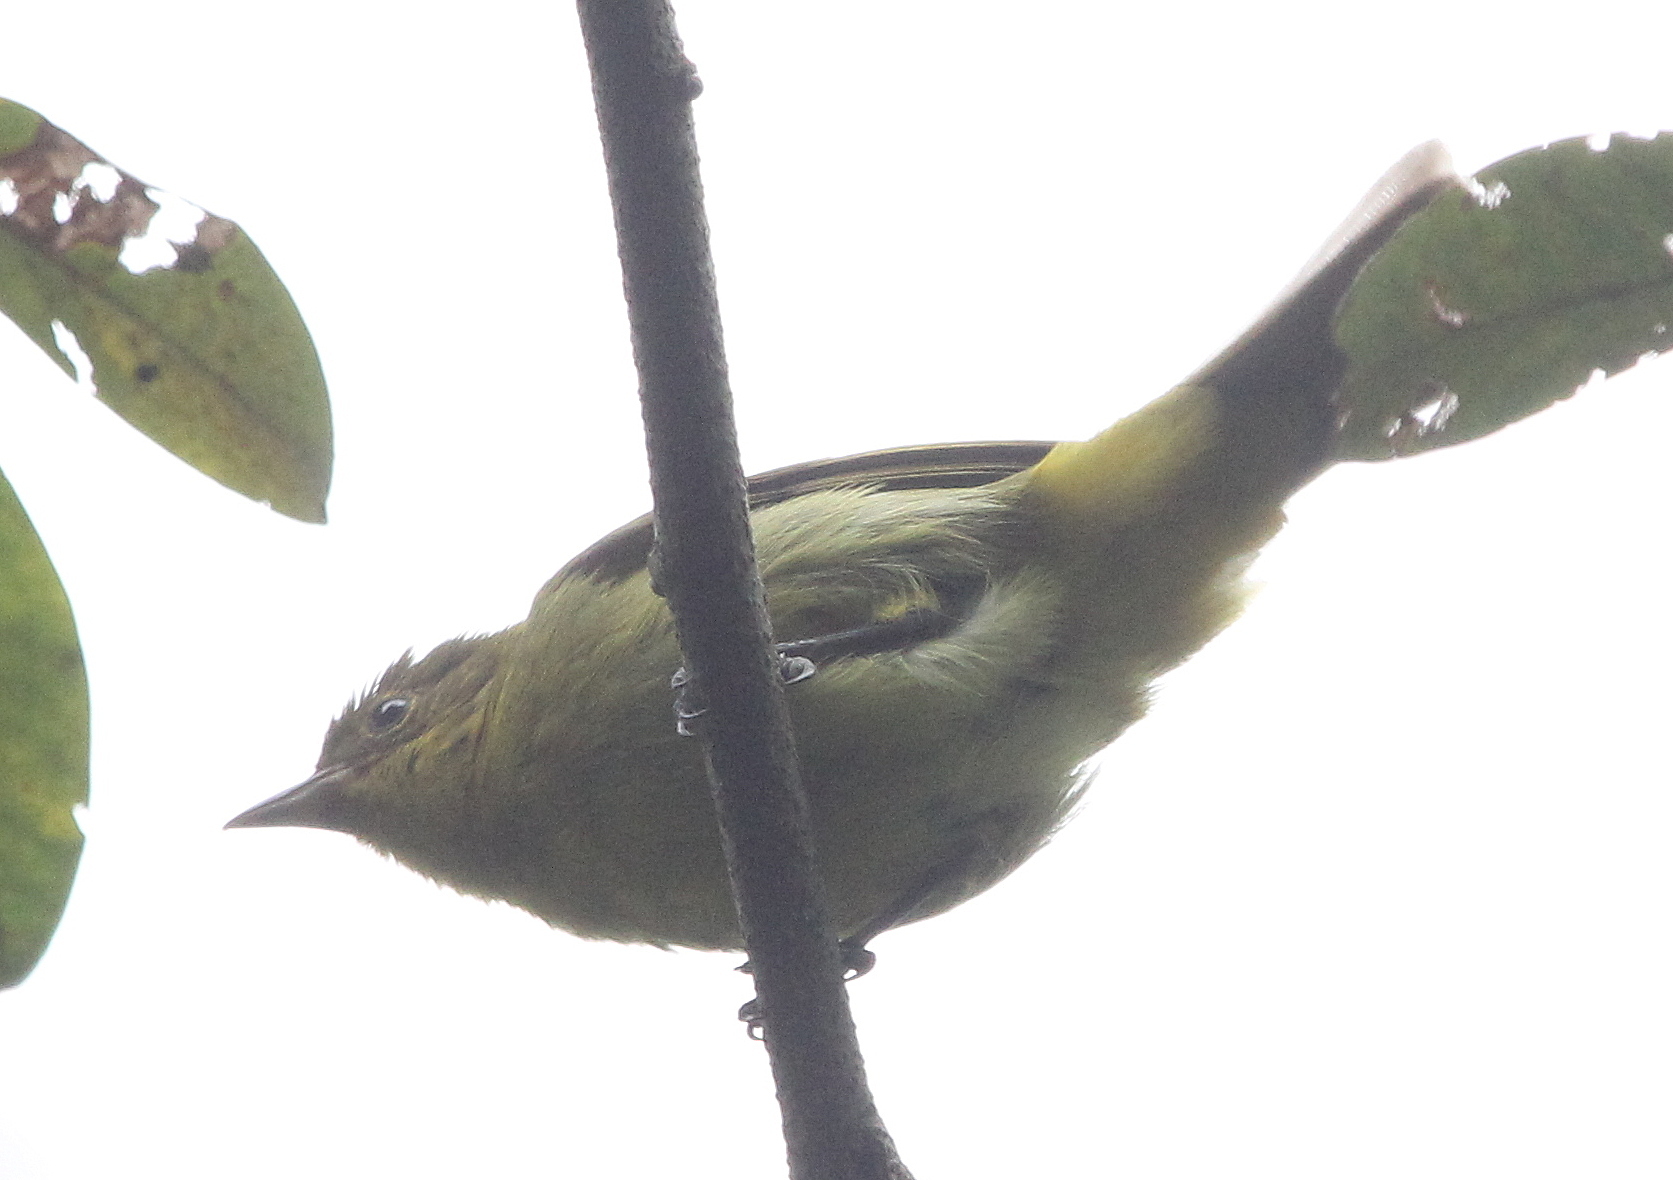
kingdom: Animalia
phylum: Chordata
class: Aves
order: Passeriformes
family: Thraupidae
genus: Hemithraupis
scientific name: Hemithraupis flavicollis
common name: Yellow-backed tanager
